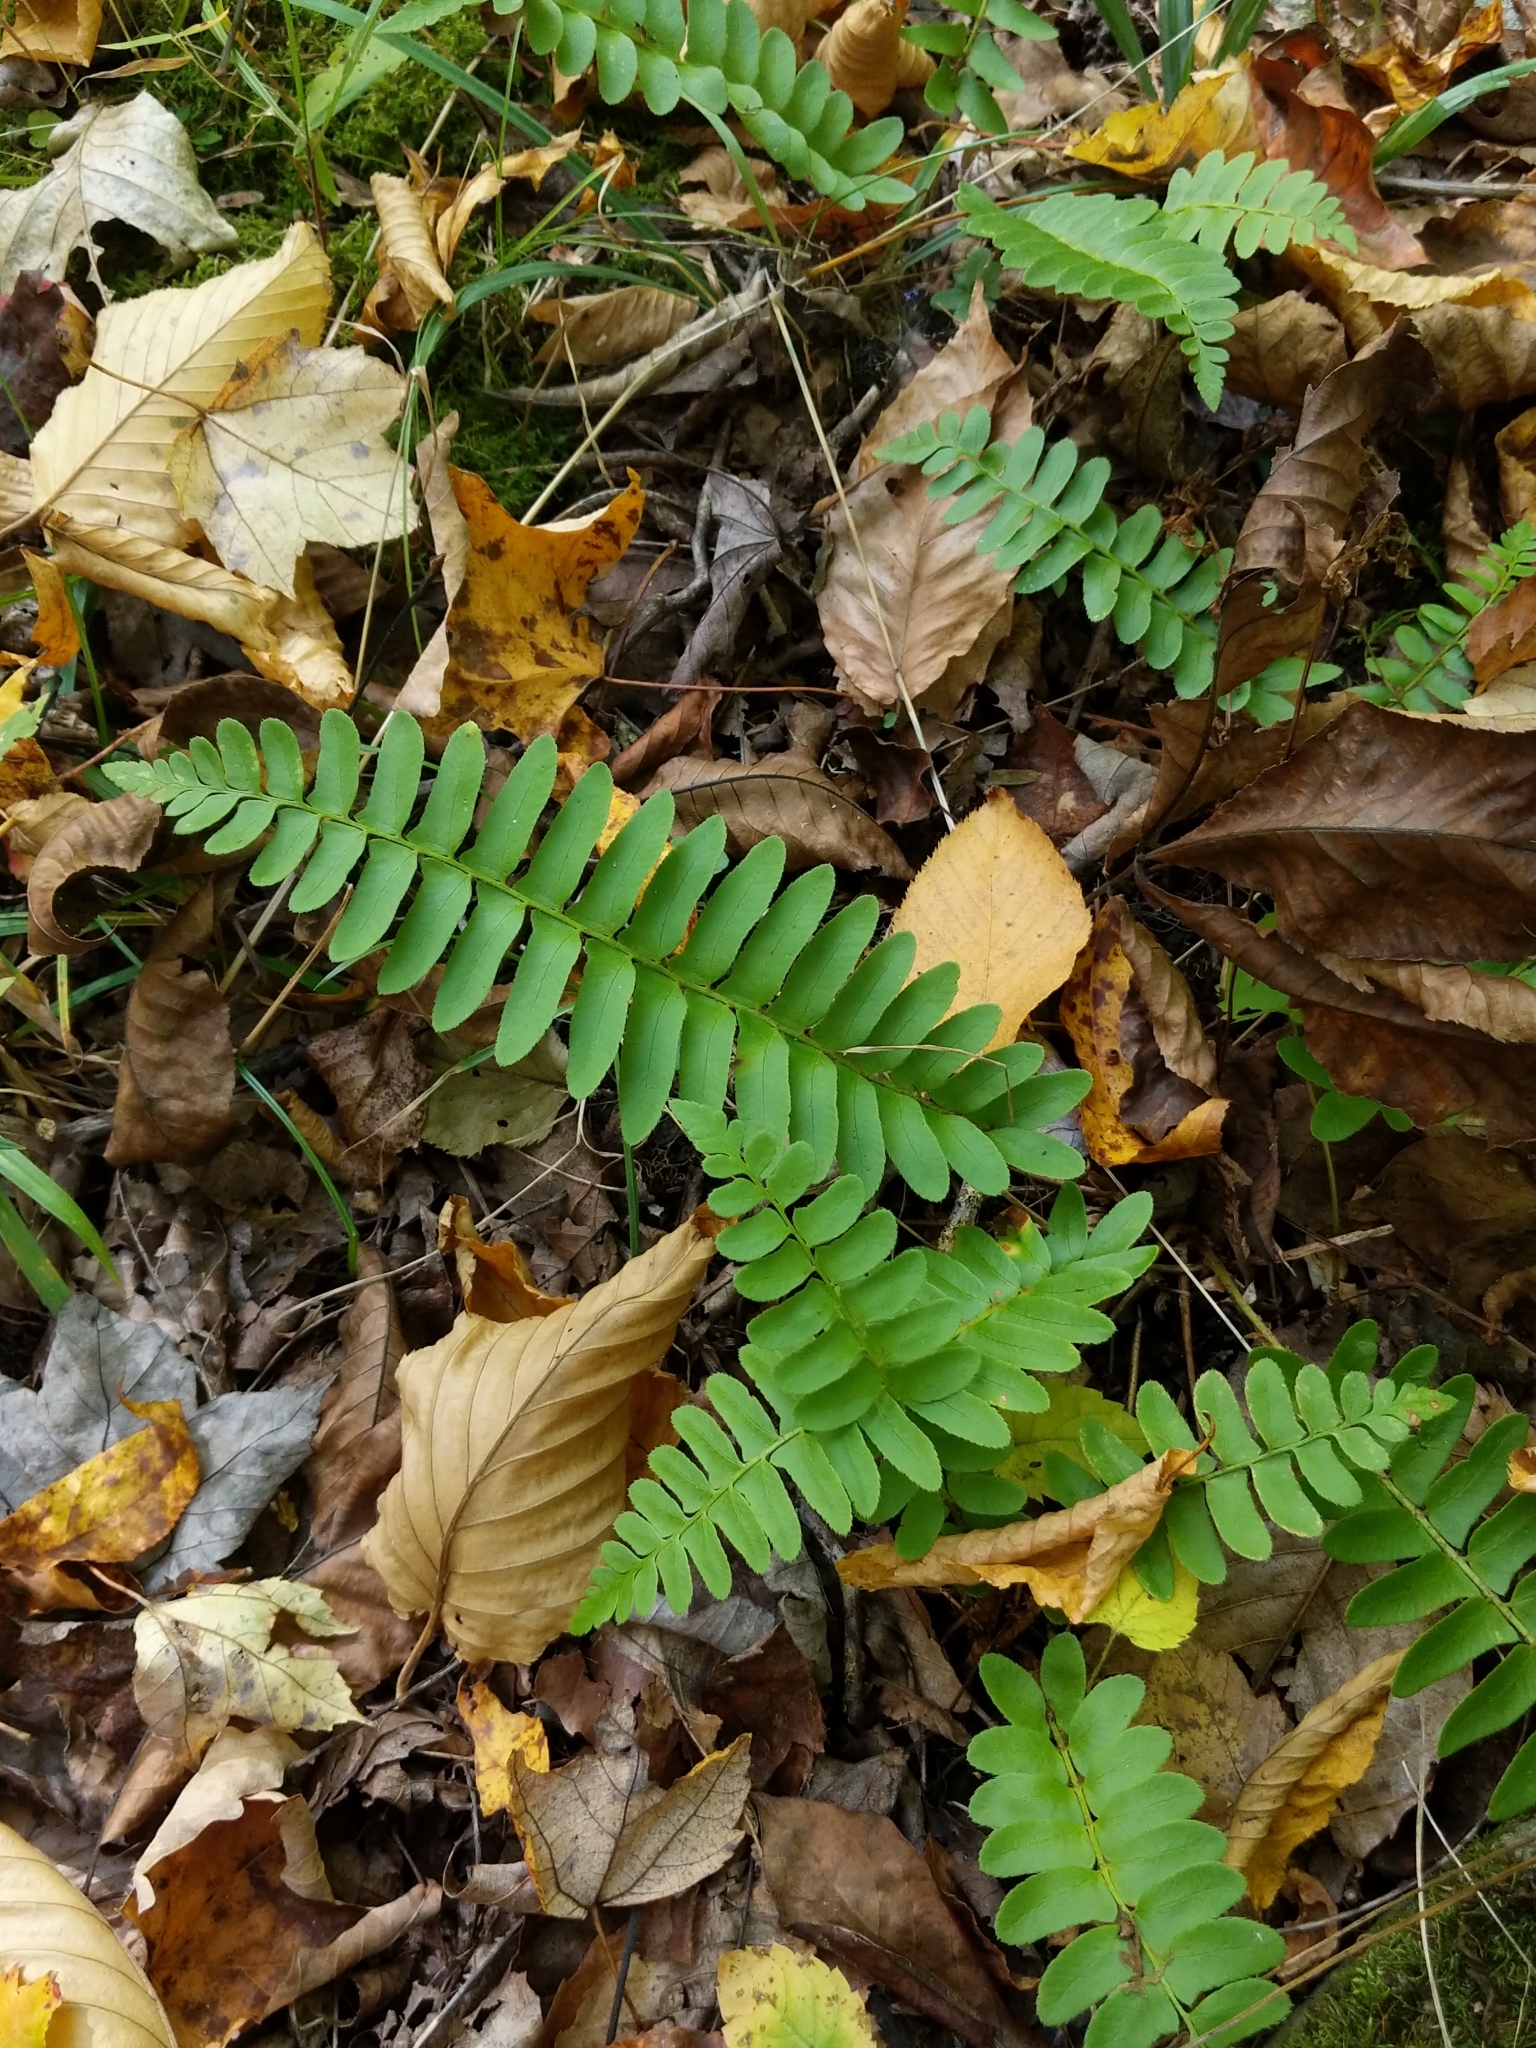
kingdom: Plantae
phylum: Tracheophyta
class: Polypodiopsida
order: Polypodiales
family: Dryopteridaceae
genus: Polystichum
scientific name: Polystichum acrostichoides
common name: Christmas fern
